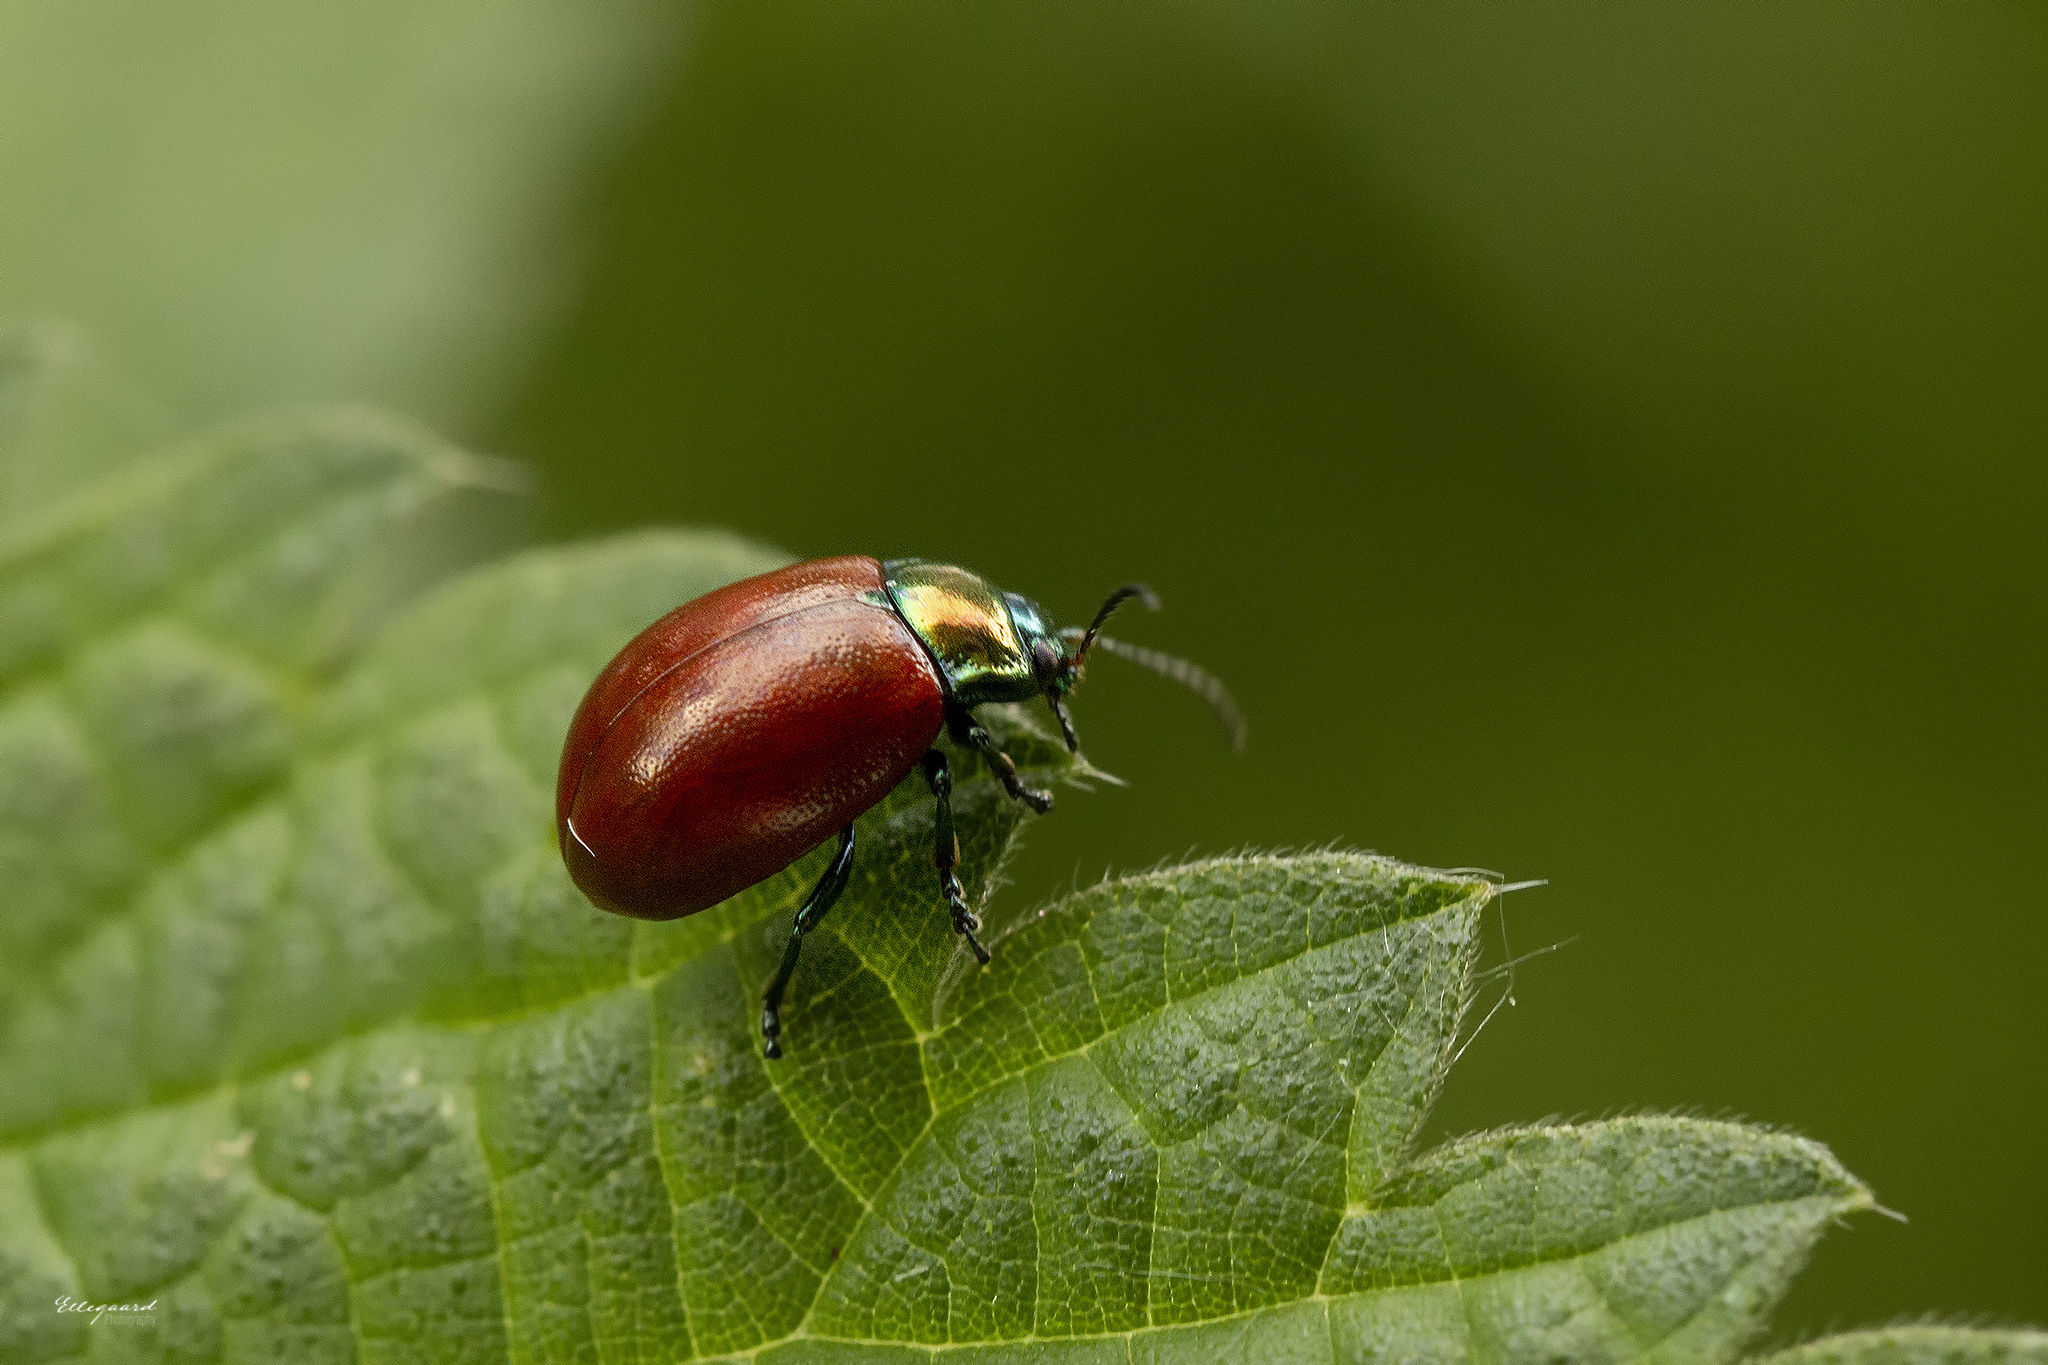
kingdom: Animalia
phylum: Arthropoda
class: Insecta
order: Coleoptera
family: Chrysomelidae
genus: Chrysomela
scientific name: Chrysomela polita
